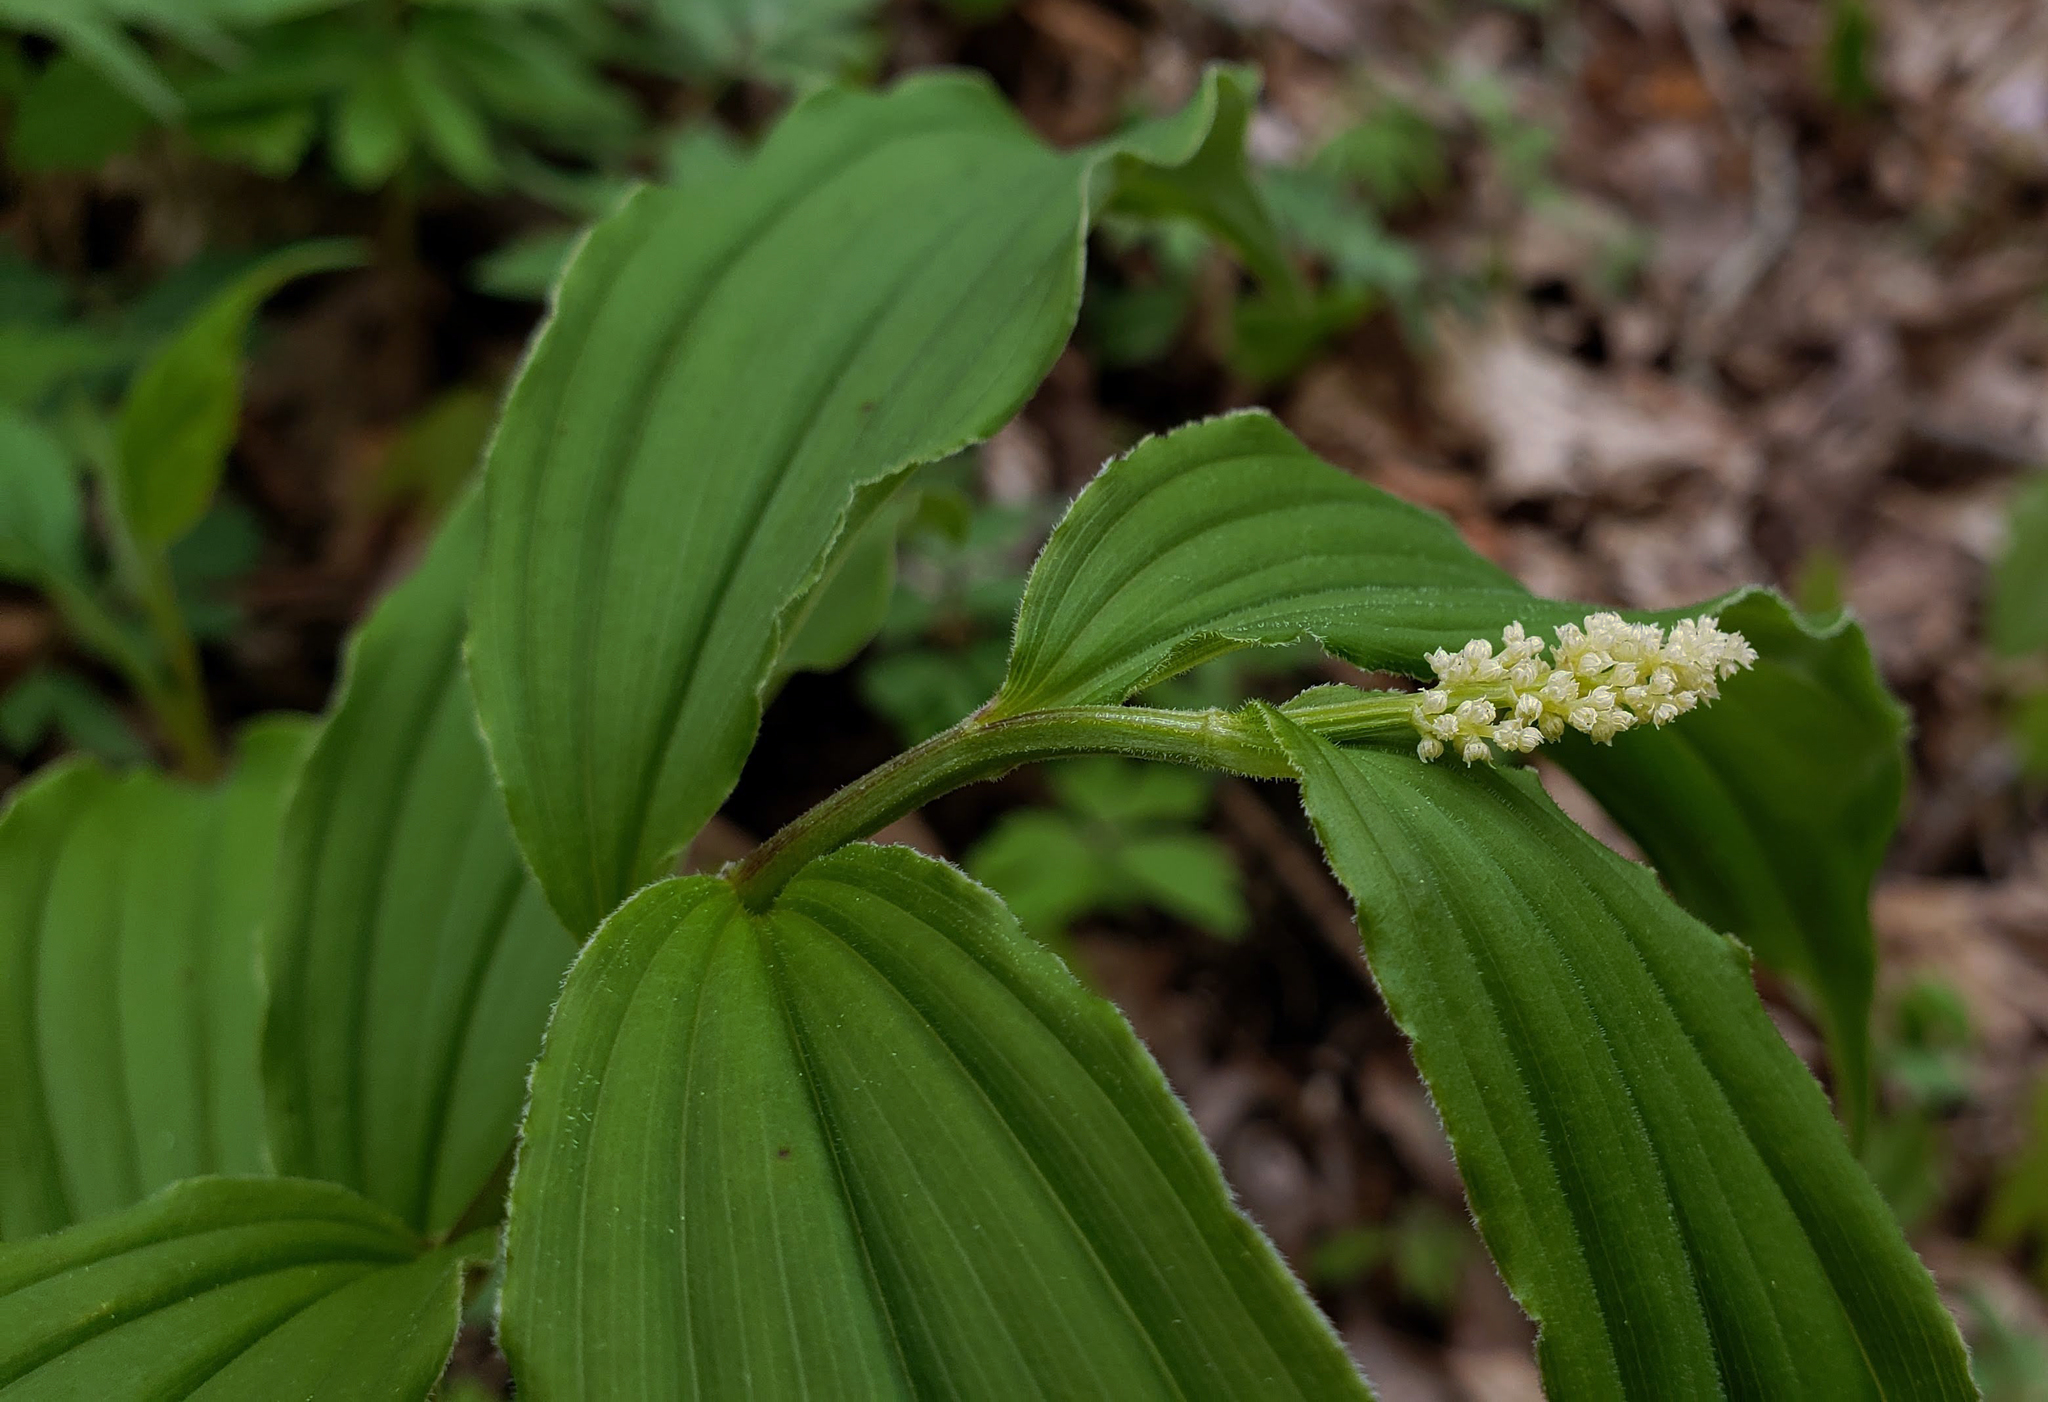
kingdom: Plantae
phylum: Tracheophyta
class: Liliopsida
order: Asparagales
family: Asparagaceae
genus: Maianthemum
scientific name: Maianthemum racemosum
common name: False spikenard
